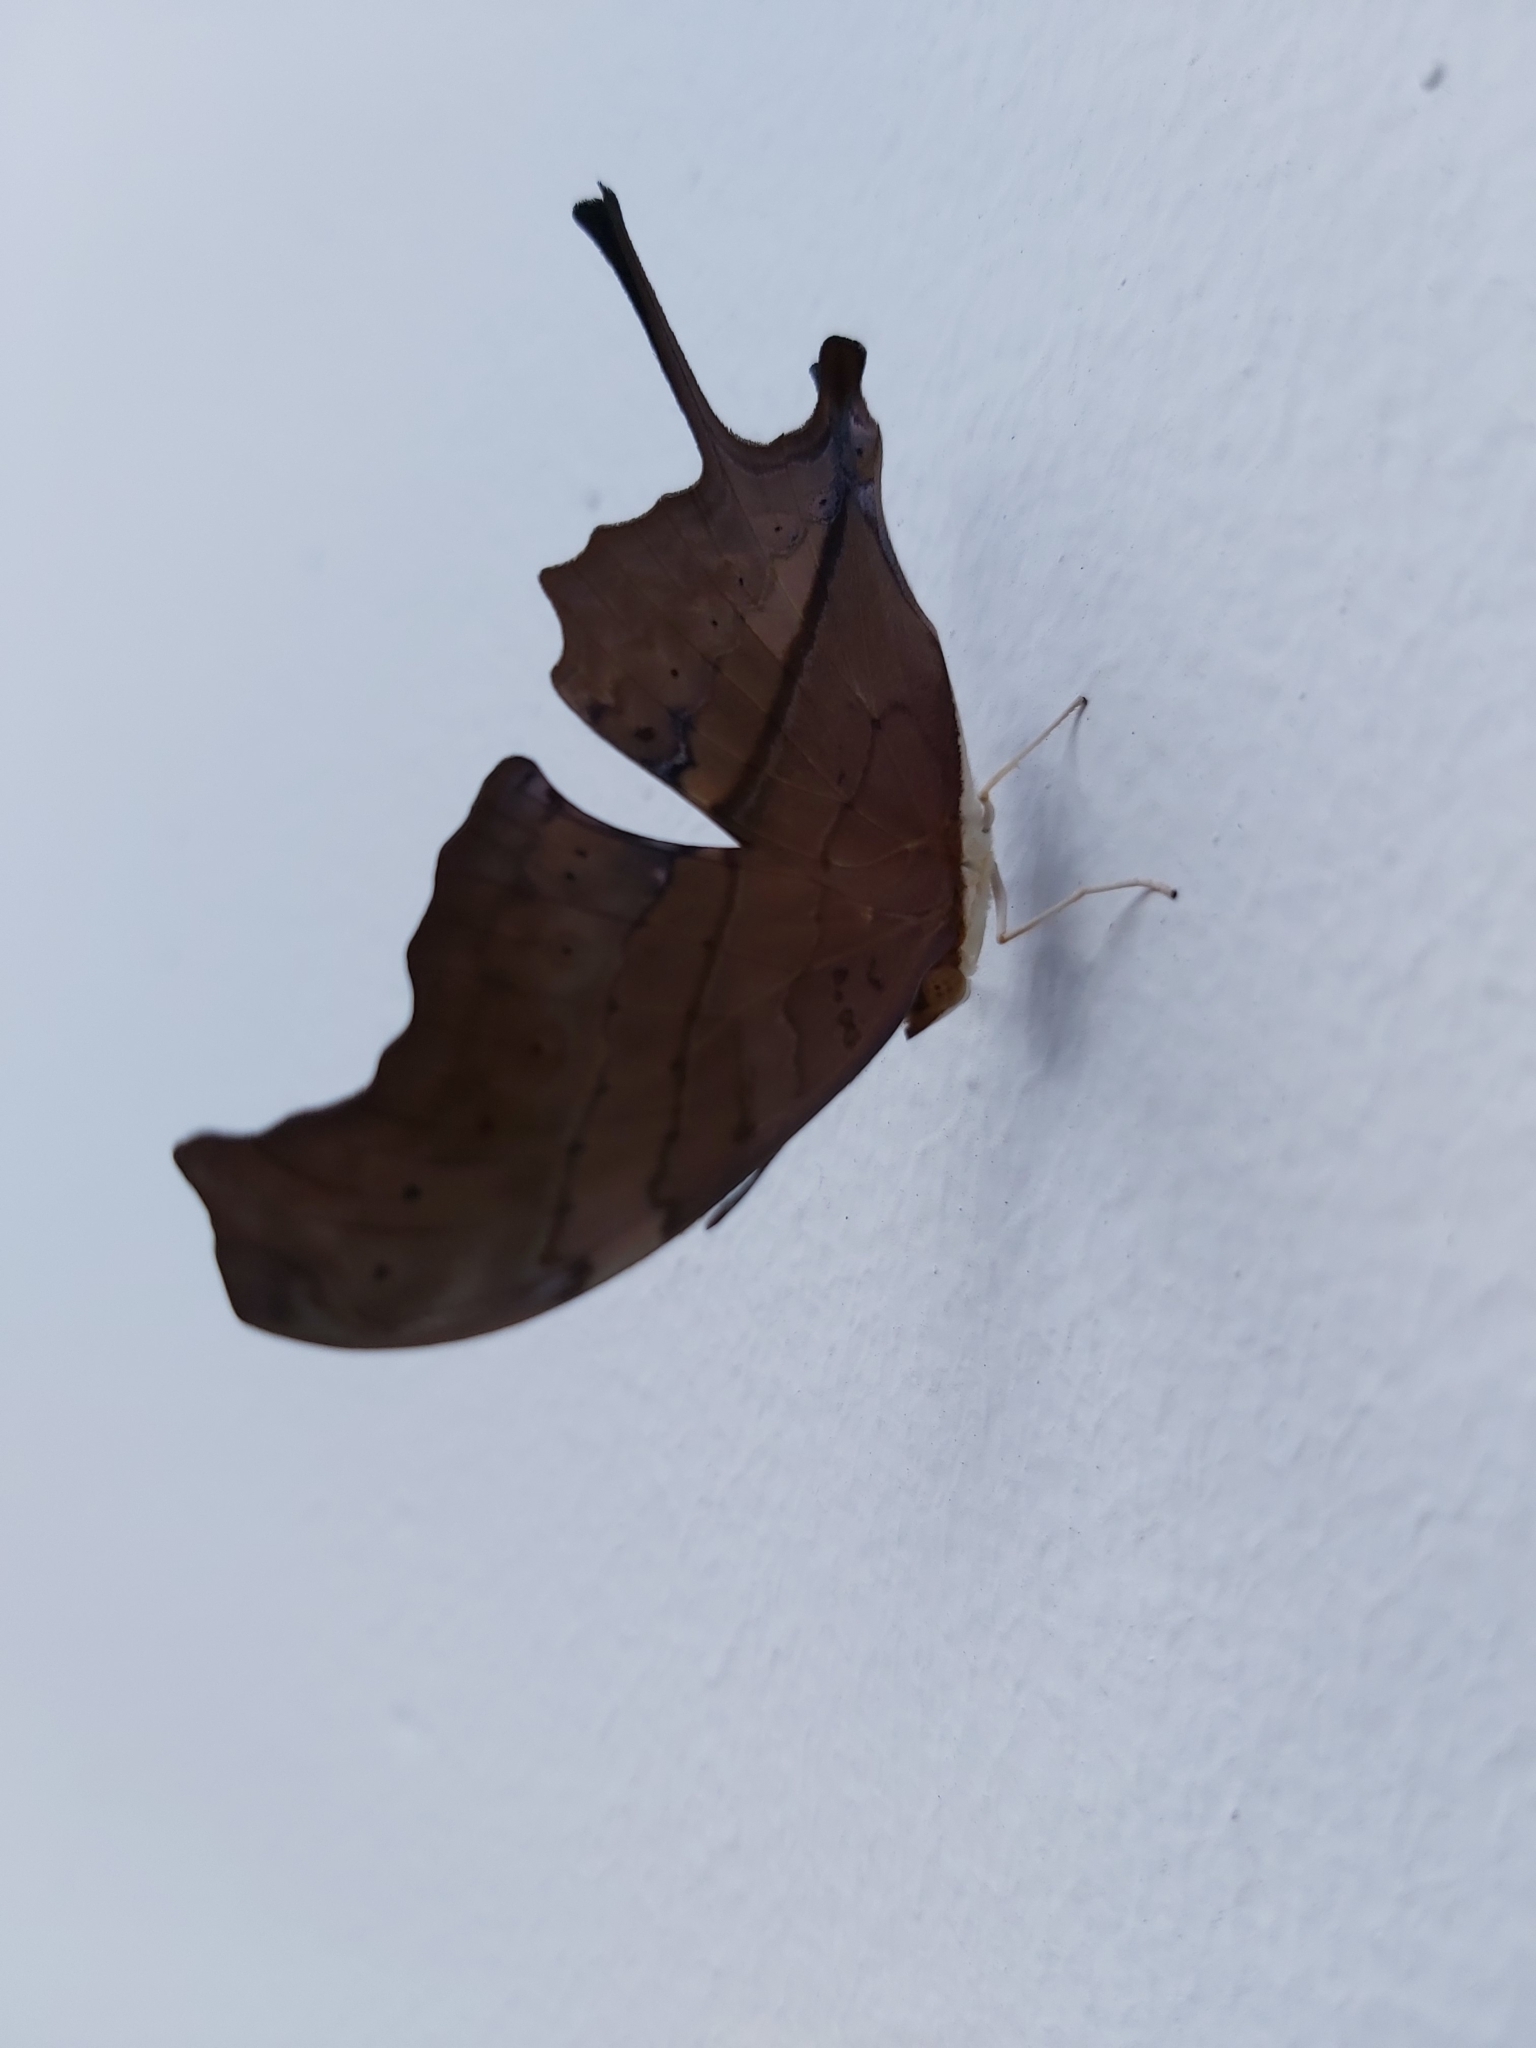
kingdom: Animalia
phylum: Arthropoda
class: Insecta
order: Lepidoptera
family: Nymphalidae
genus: Marpesia
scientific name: Marpesia petreus
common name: Red dagger wing
